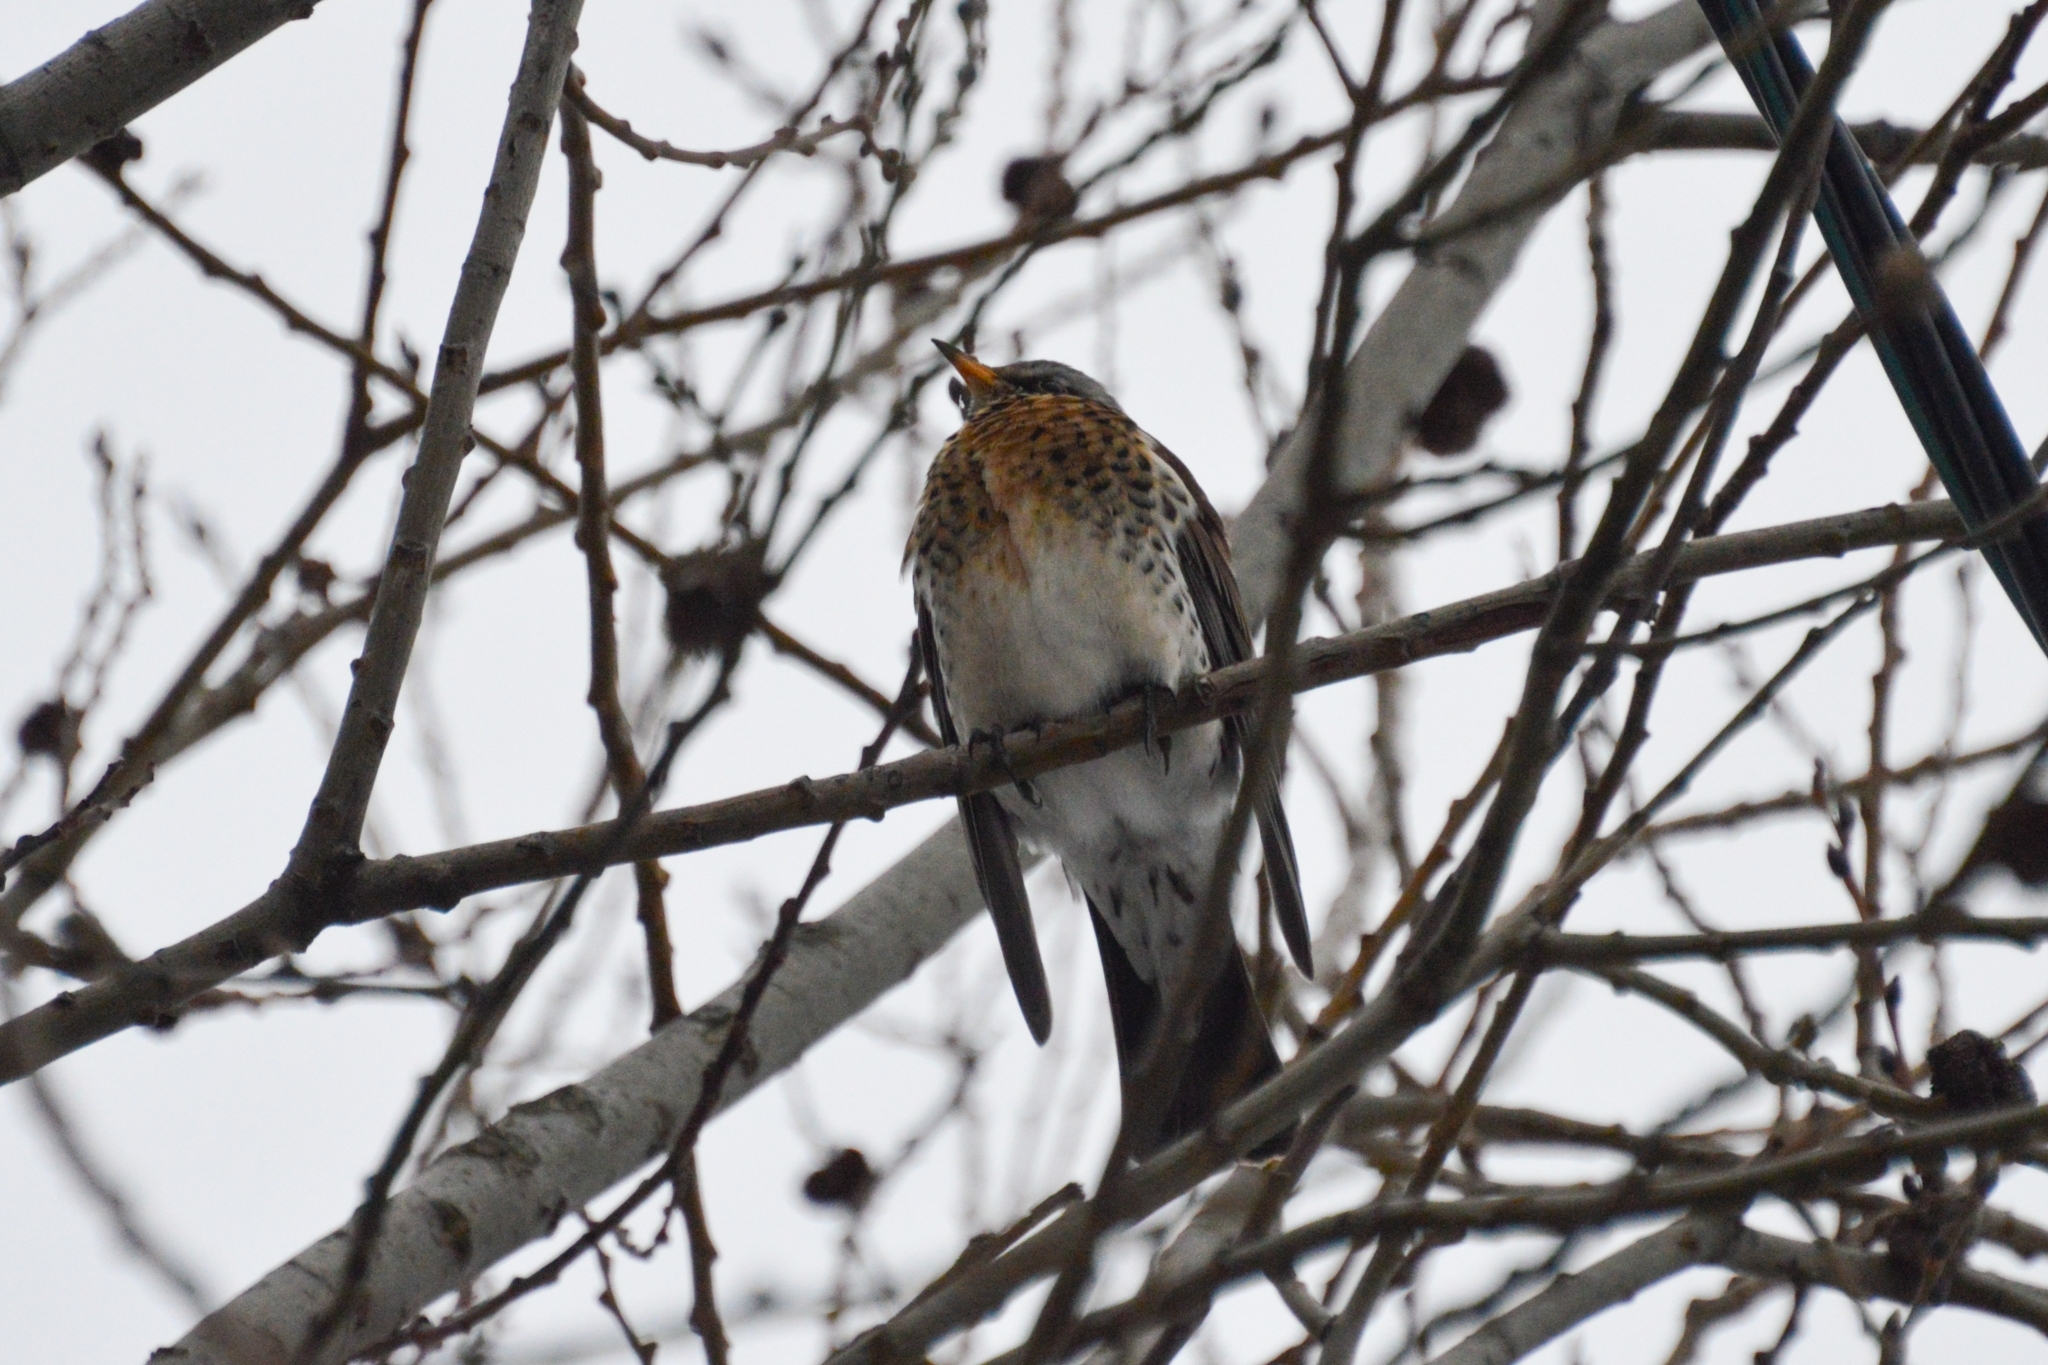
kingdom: Animalia
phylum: Chordata
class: Aves
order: Passeriformes
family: Turdidae
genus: Turdus
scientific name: Turdus pilaris
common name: Fieldfare
